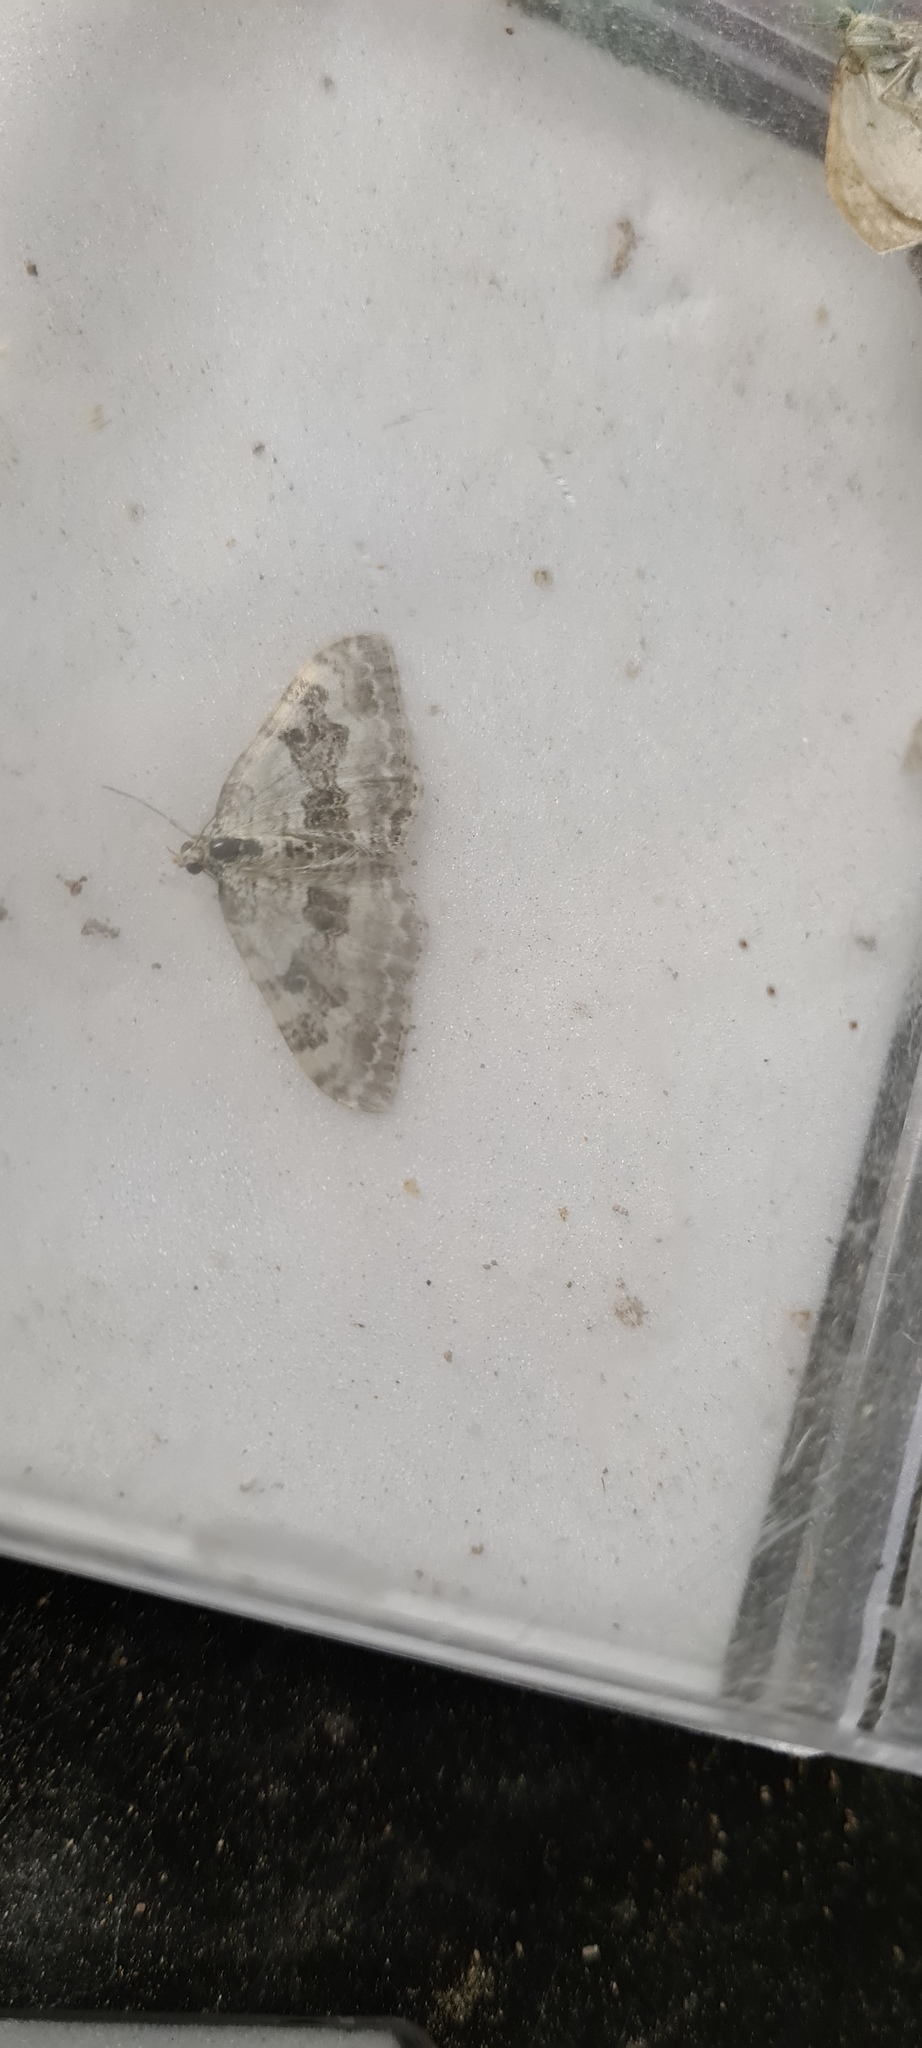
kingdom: Animalia
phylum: Arthropoda
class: Insecta
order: Lepidoptera
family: Geometridae
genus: Xanthorhoe
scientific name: Xanthorhoe montanata
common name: Silver-ground carpet
